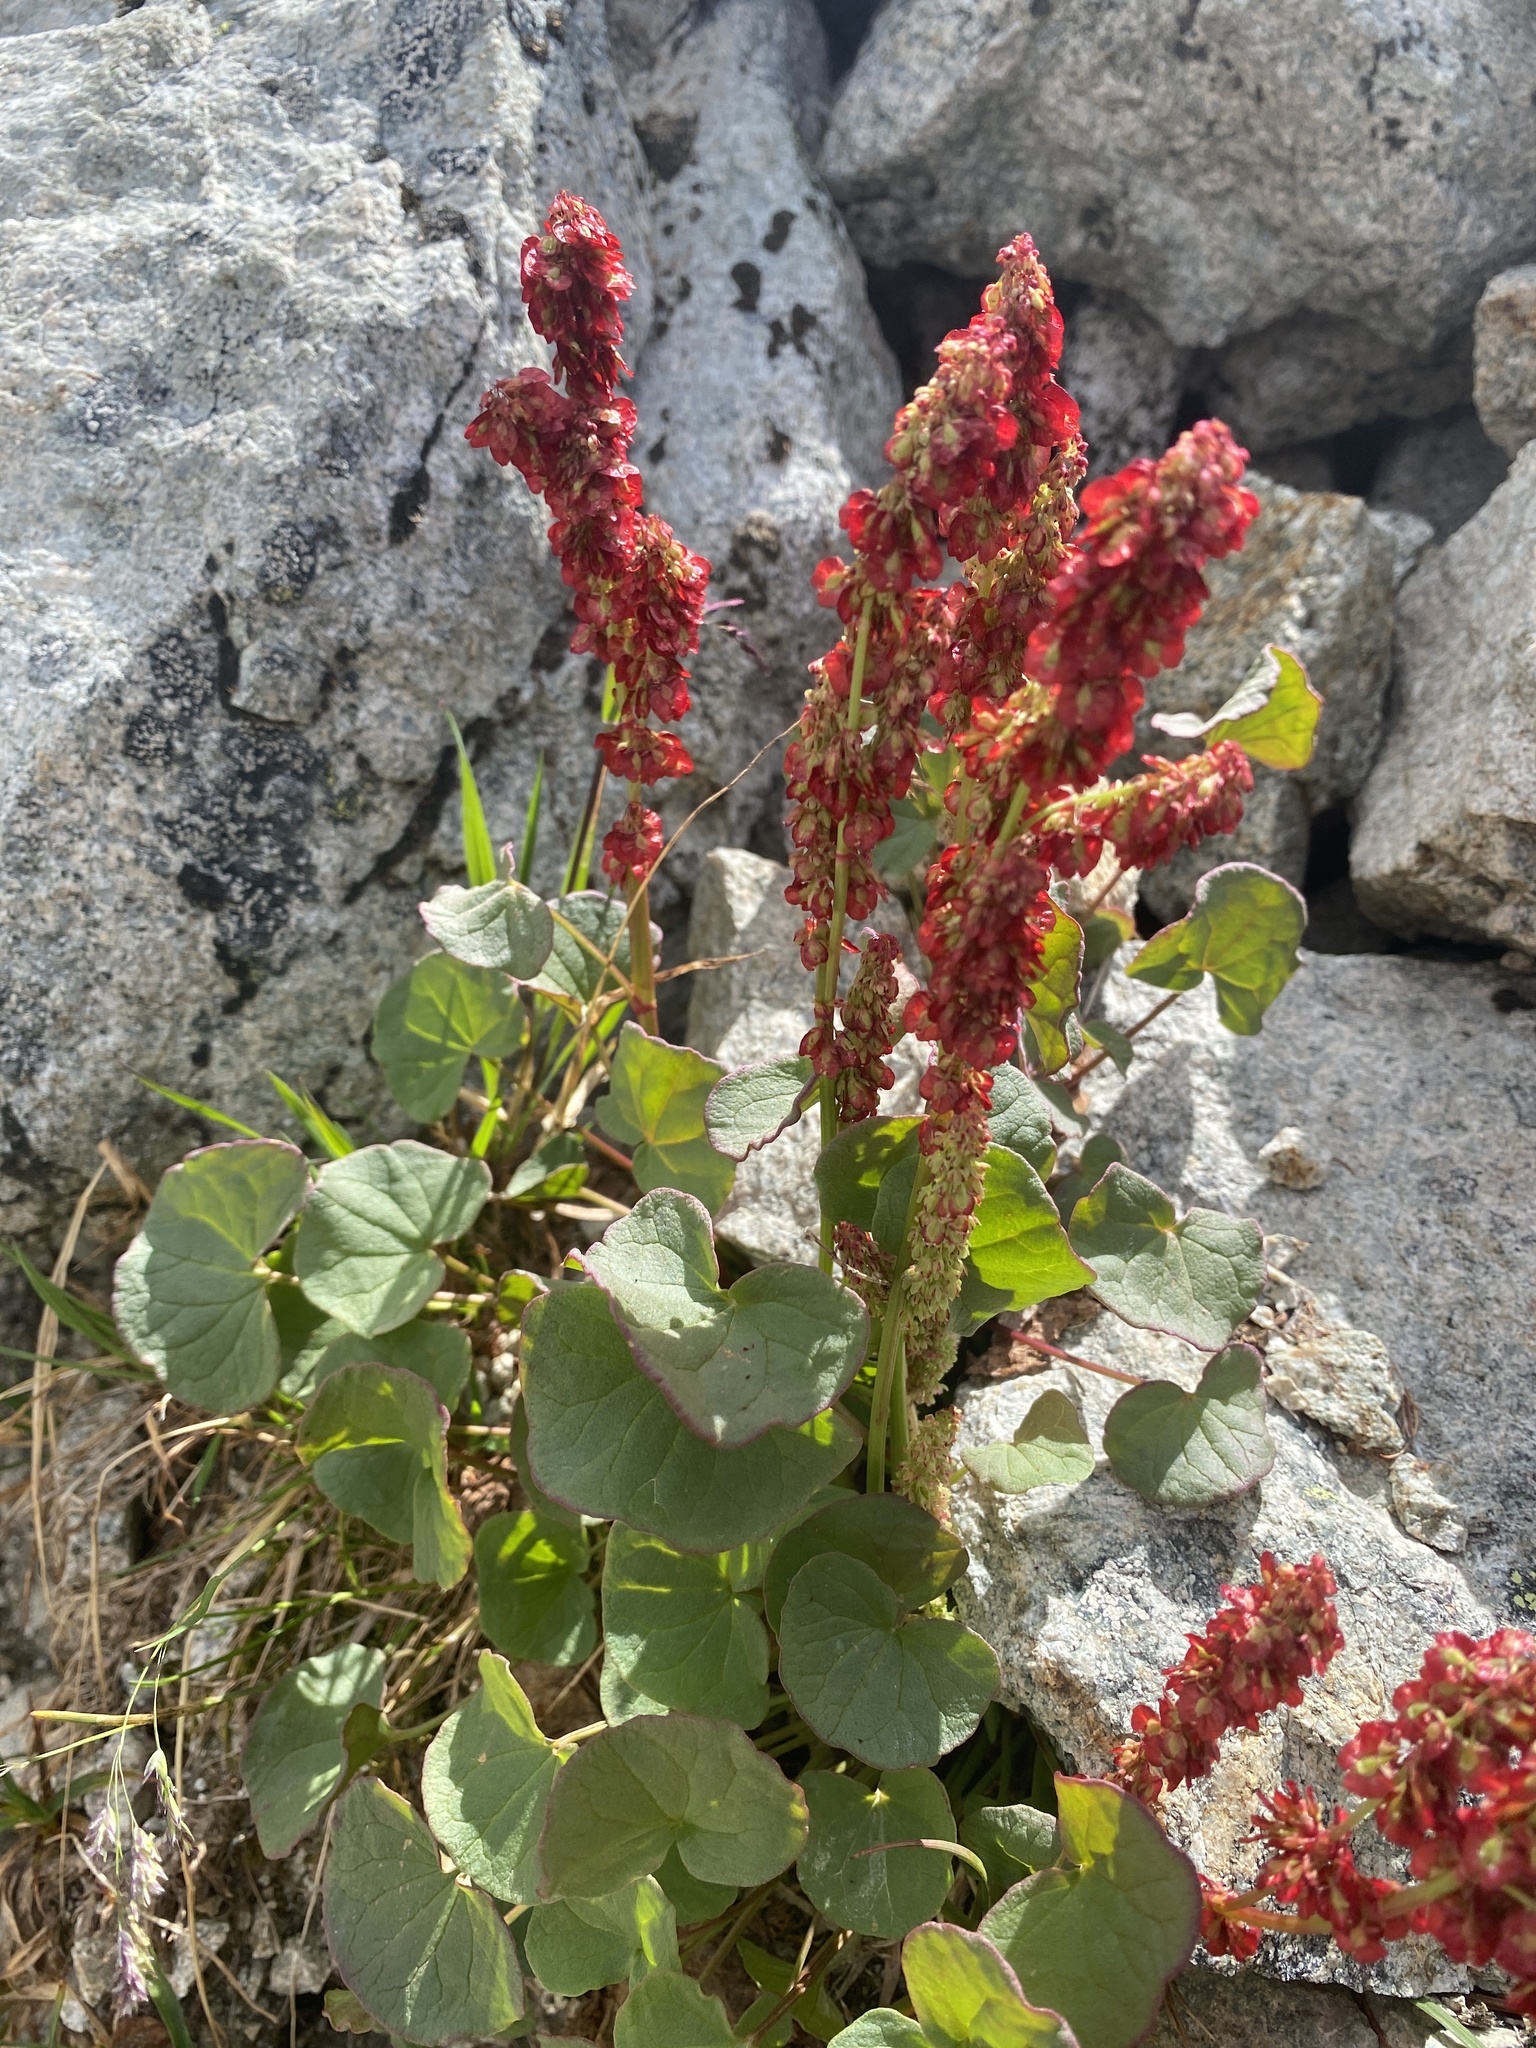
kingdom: Plantae
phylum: Tracheophyta
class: Magnoliopsida
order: Caryophyllales
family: Polygonaceae
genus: Oxyria
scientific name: Oxyria digyna
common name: Alpine mountain-sorrel
